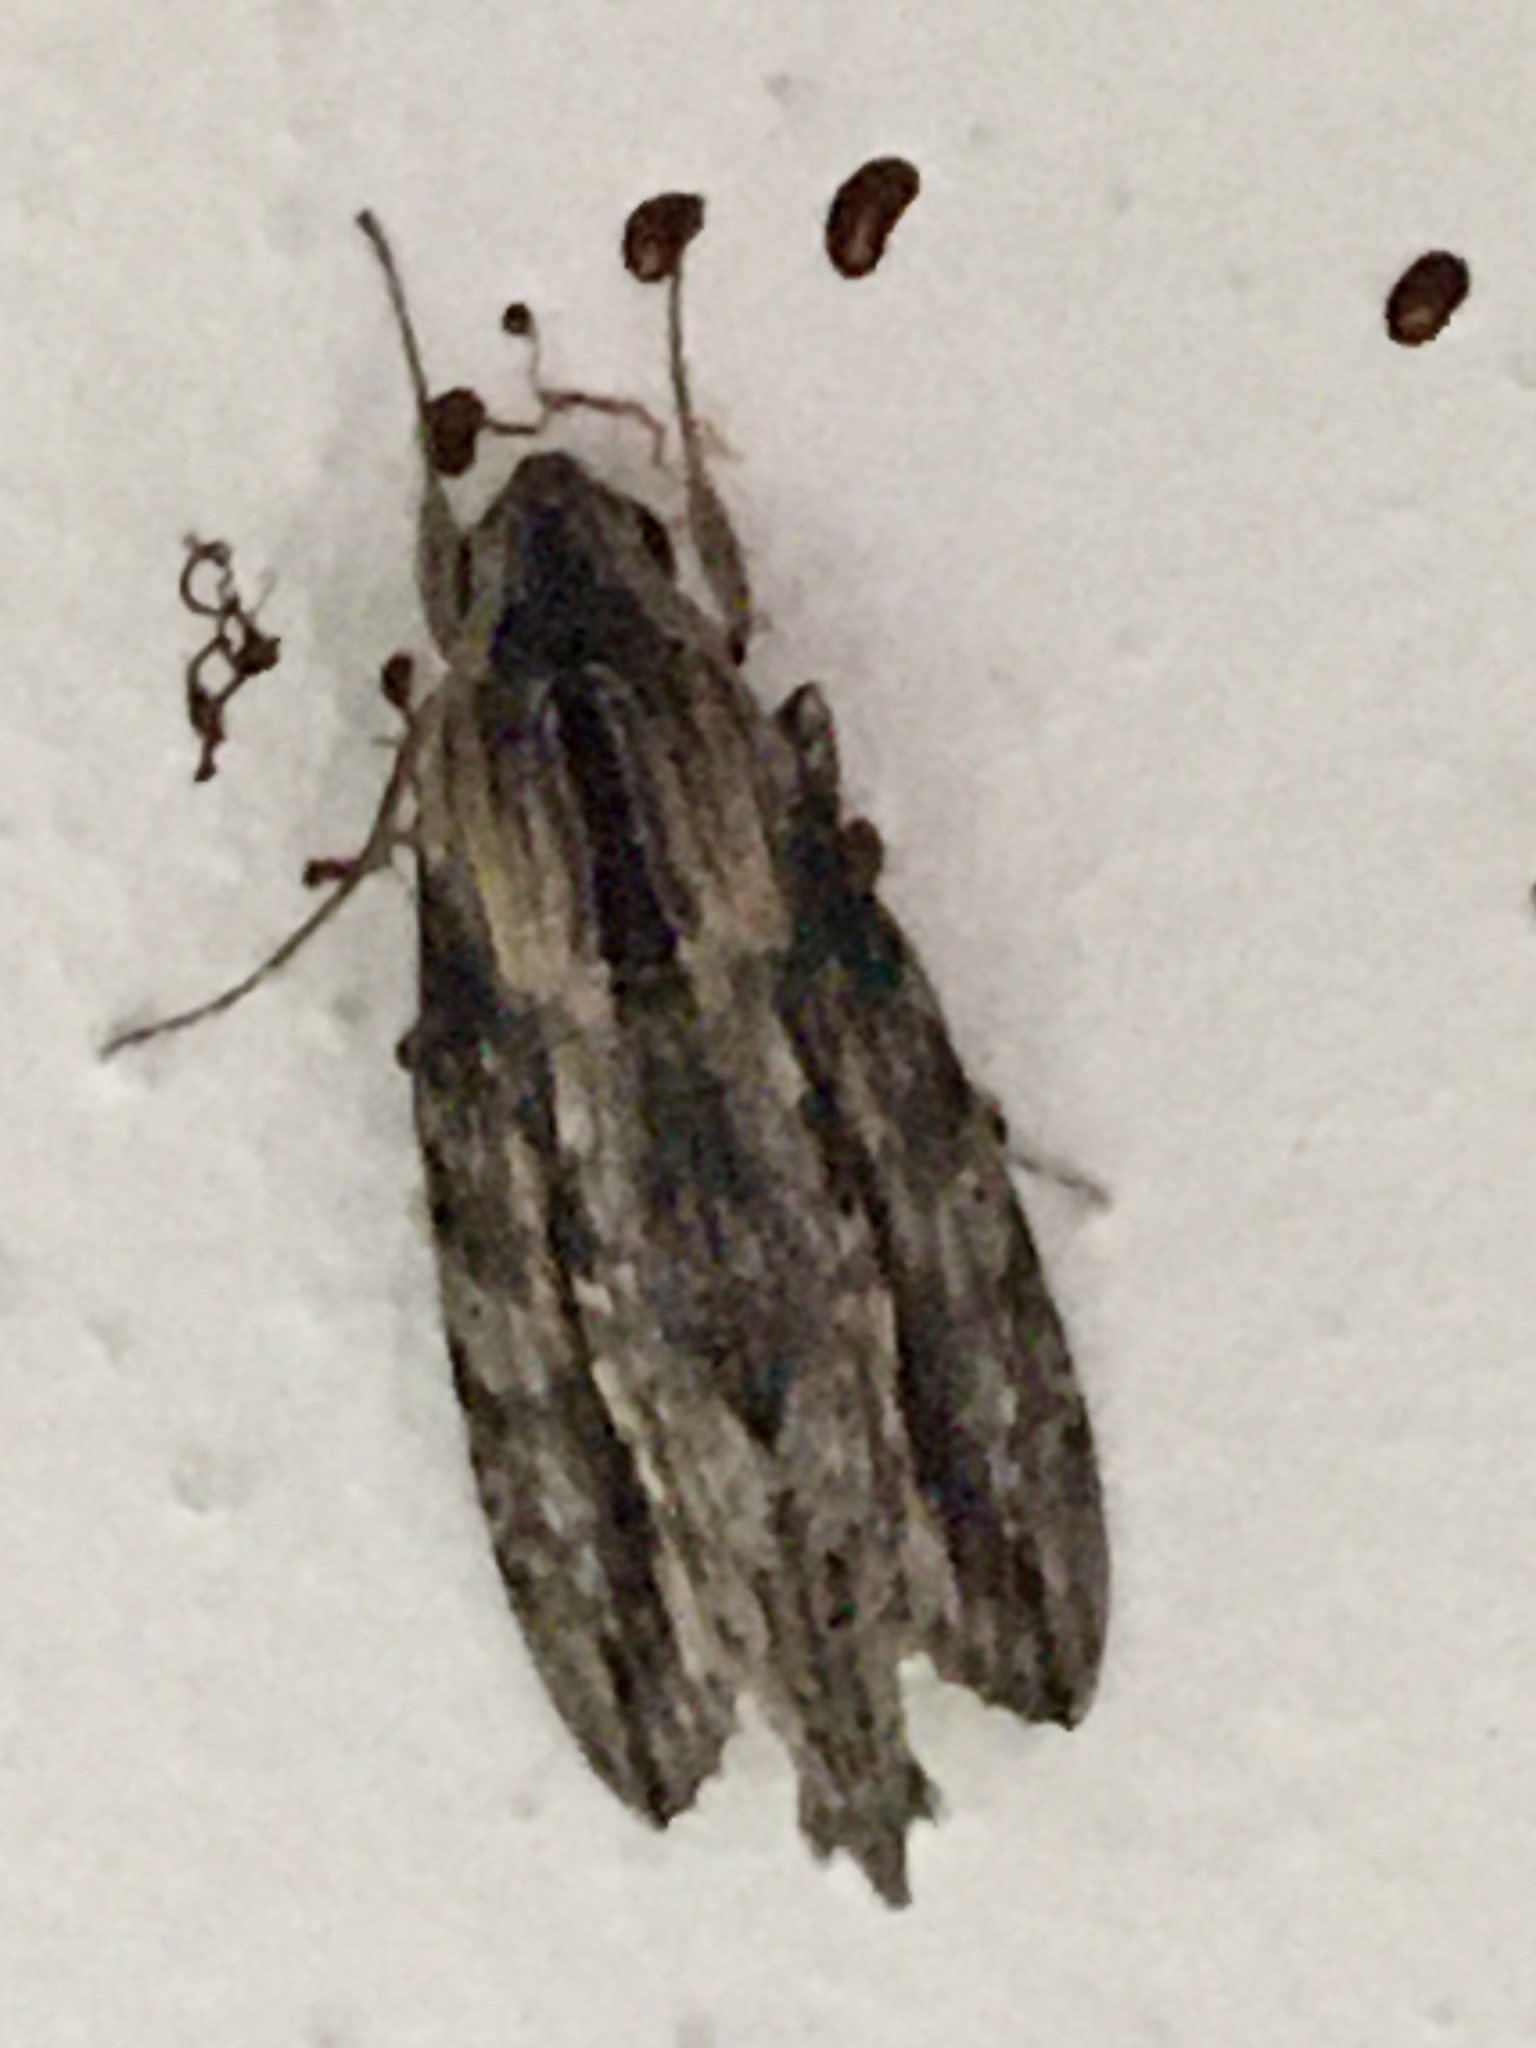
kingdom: Animalia
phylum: Arthropoda
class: Insecta
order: Lepidoptera
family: Sphingidae
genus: Erinnyis
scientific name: Erinnyis ello
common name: Ello sphinx
